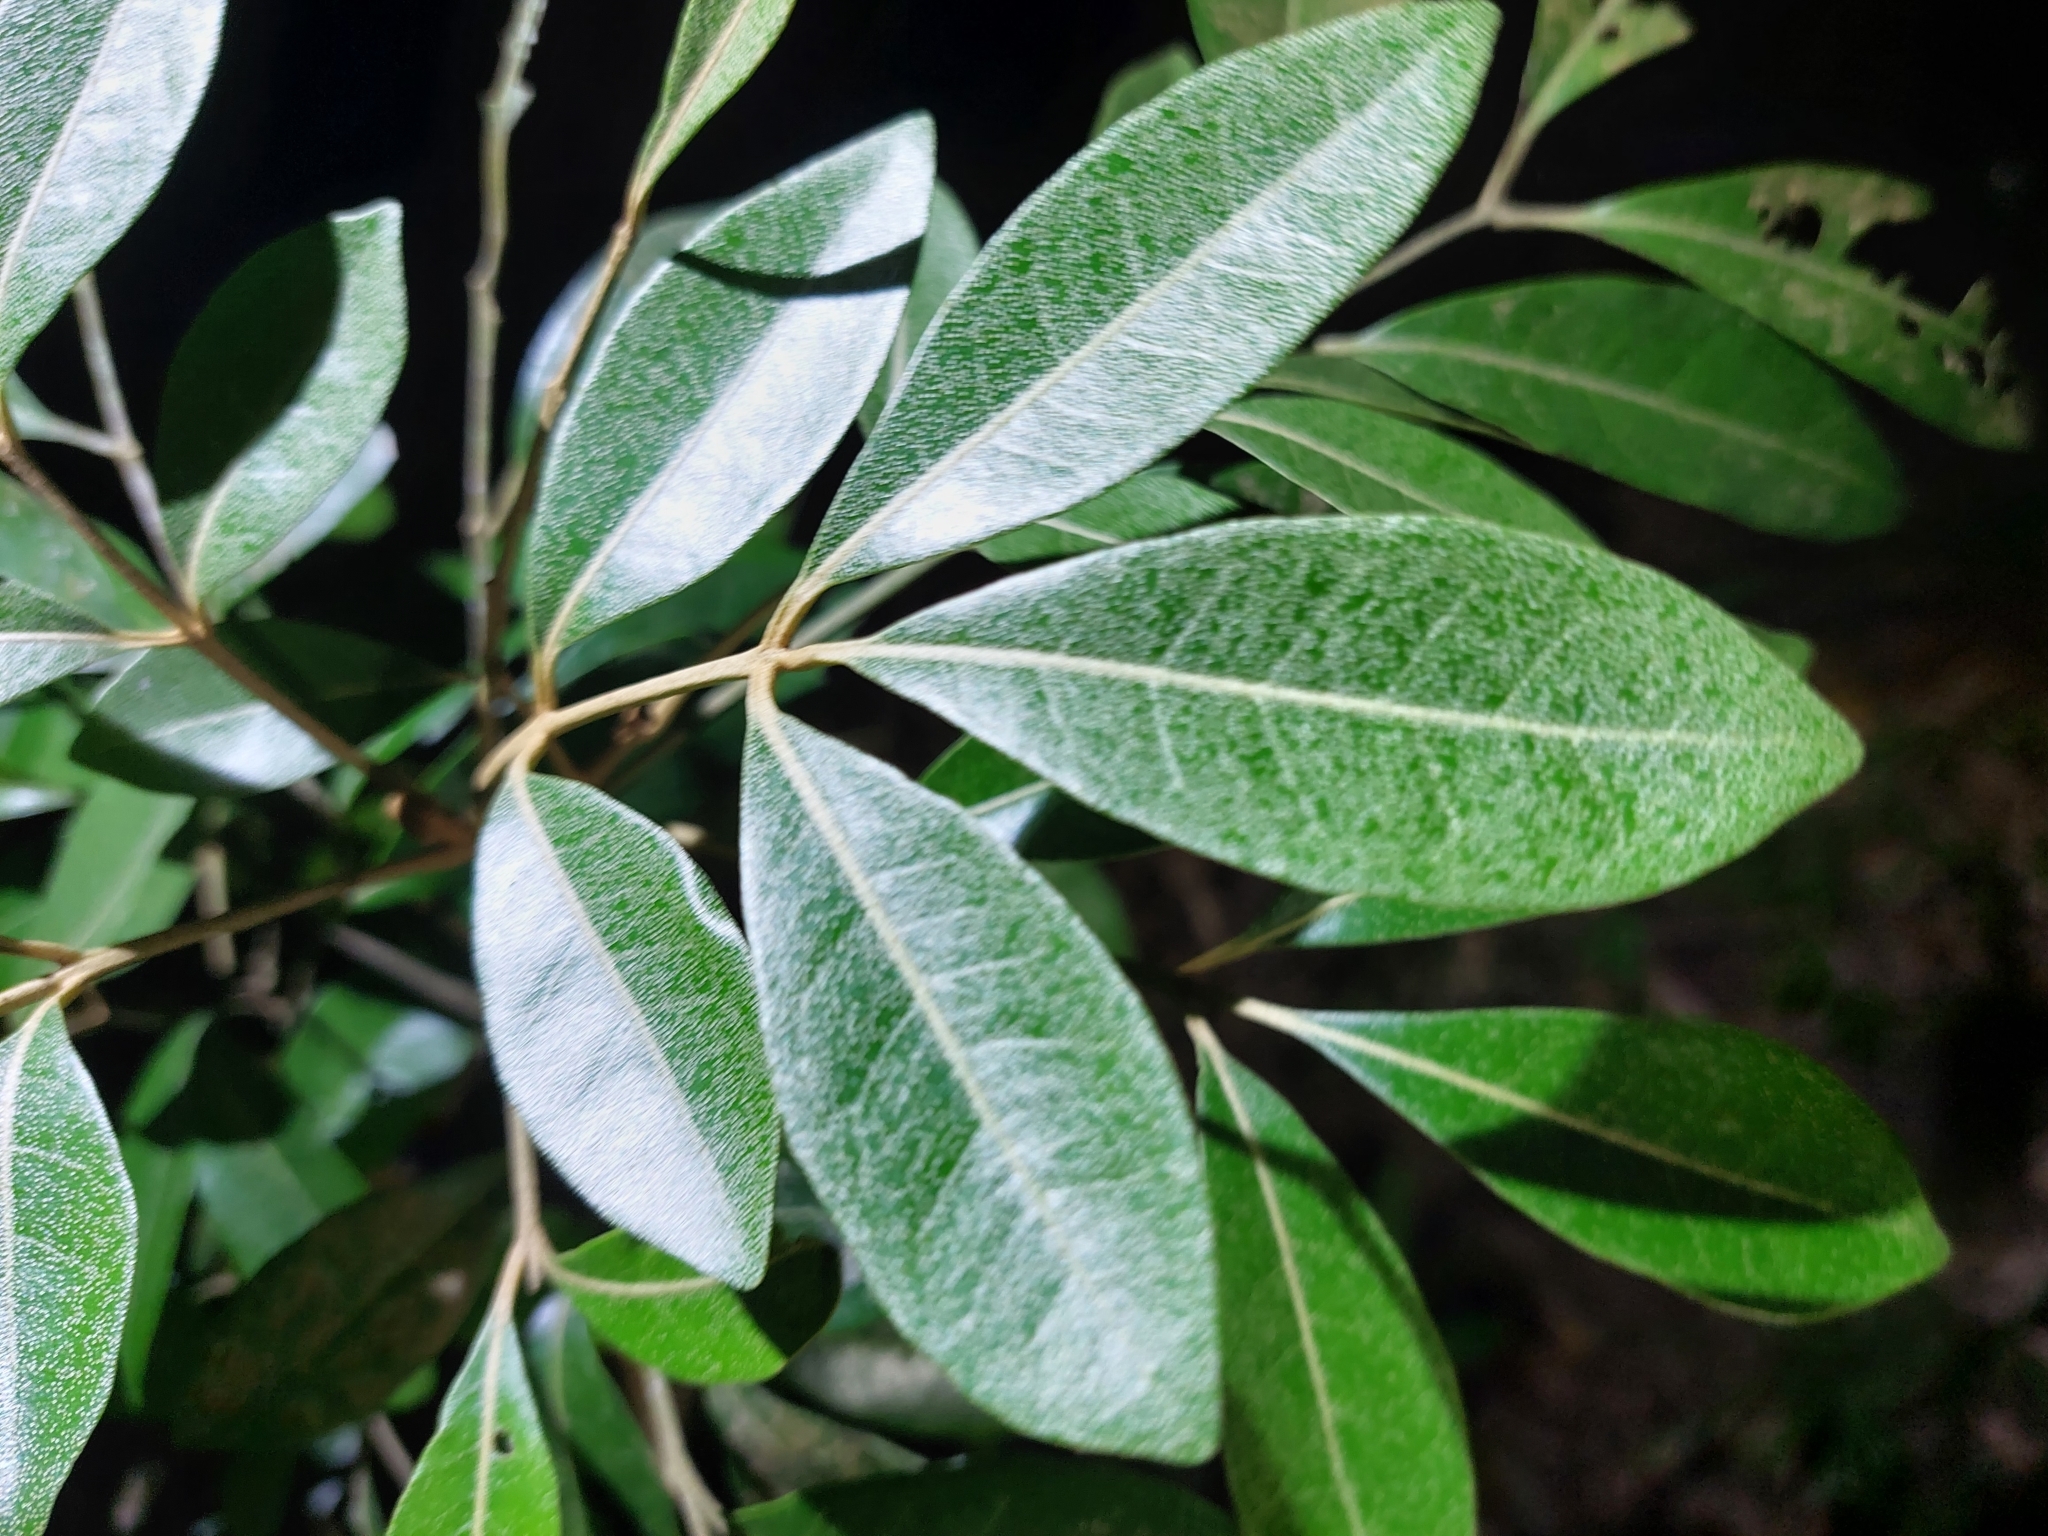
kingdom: Plantae
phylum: Tracheophyta
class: Magnoliopsida
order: Sapindales
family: Meliaceae
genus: Aglaia
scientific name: Aglaia elaeagnoidea
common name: Droopyleaf
